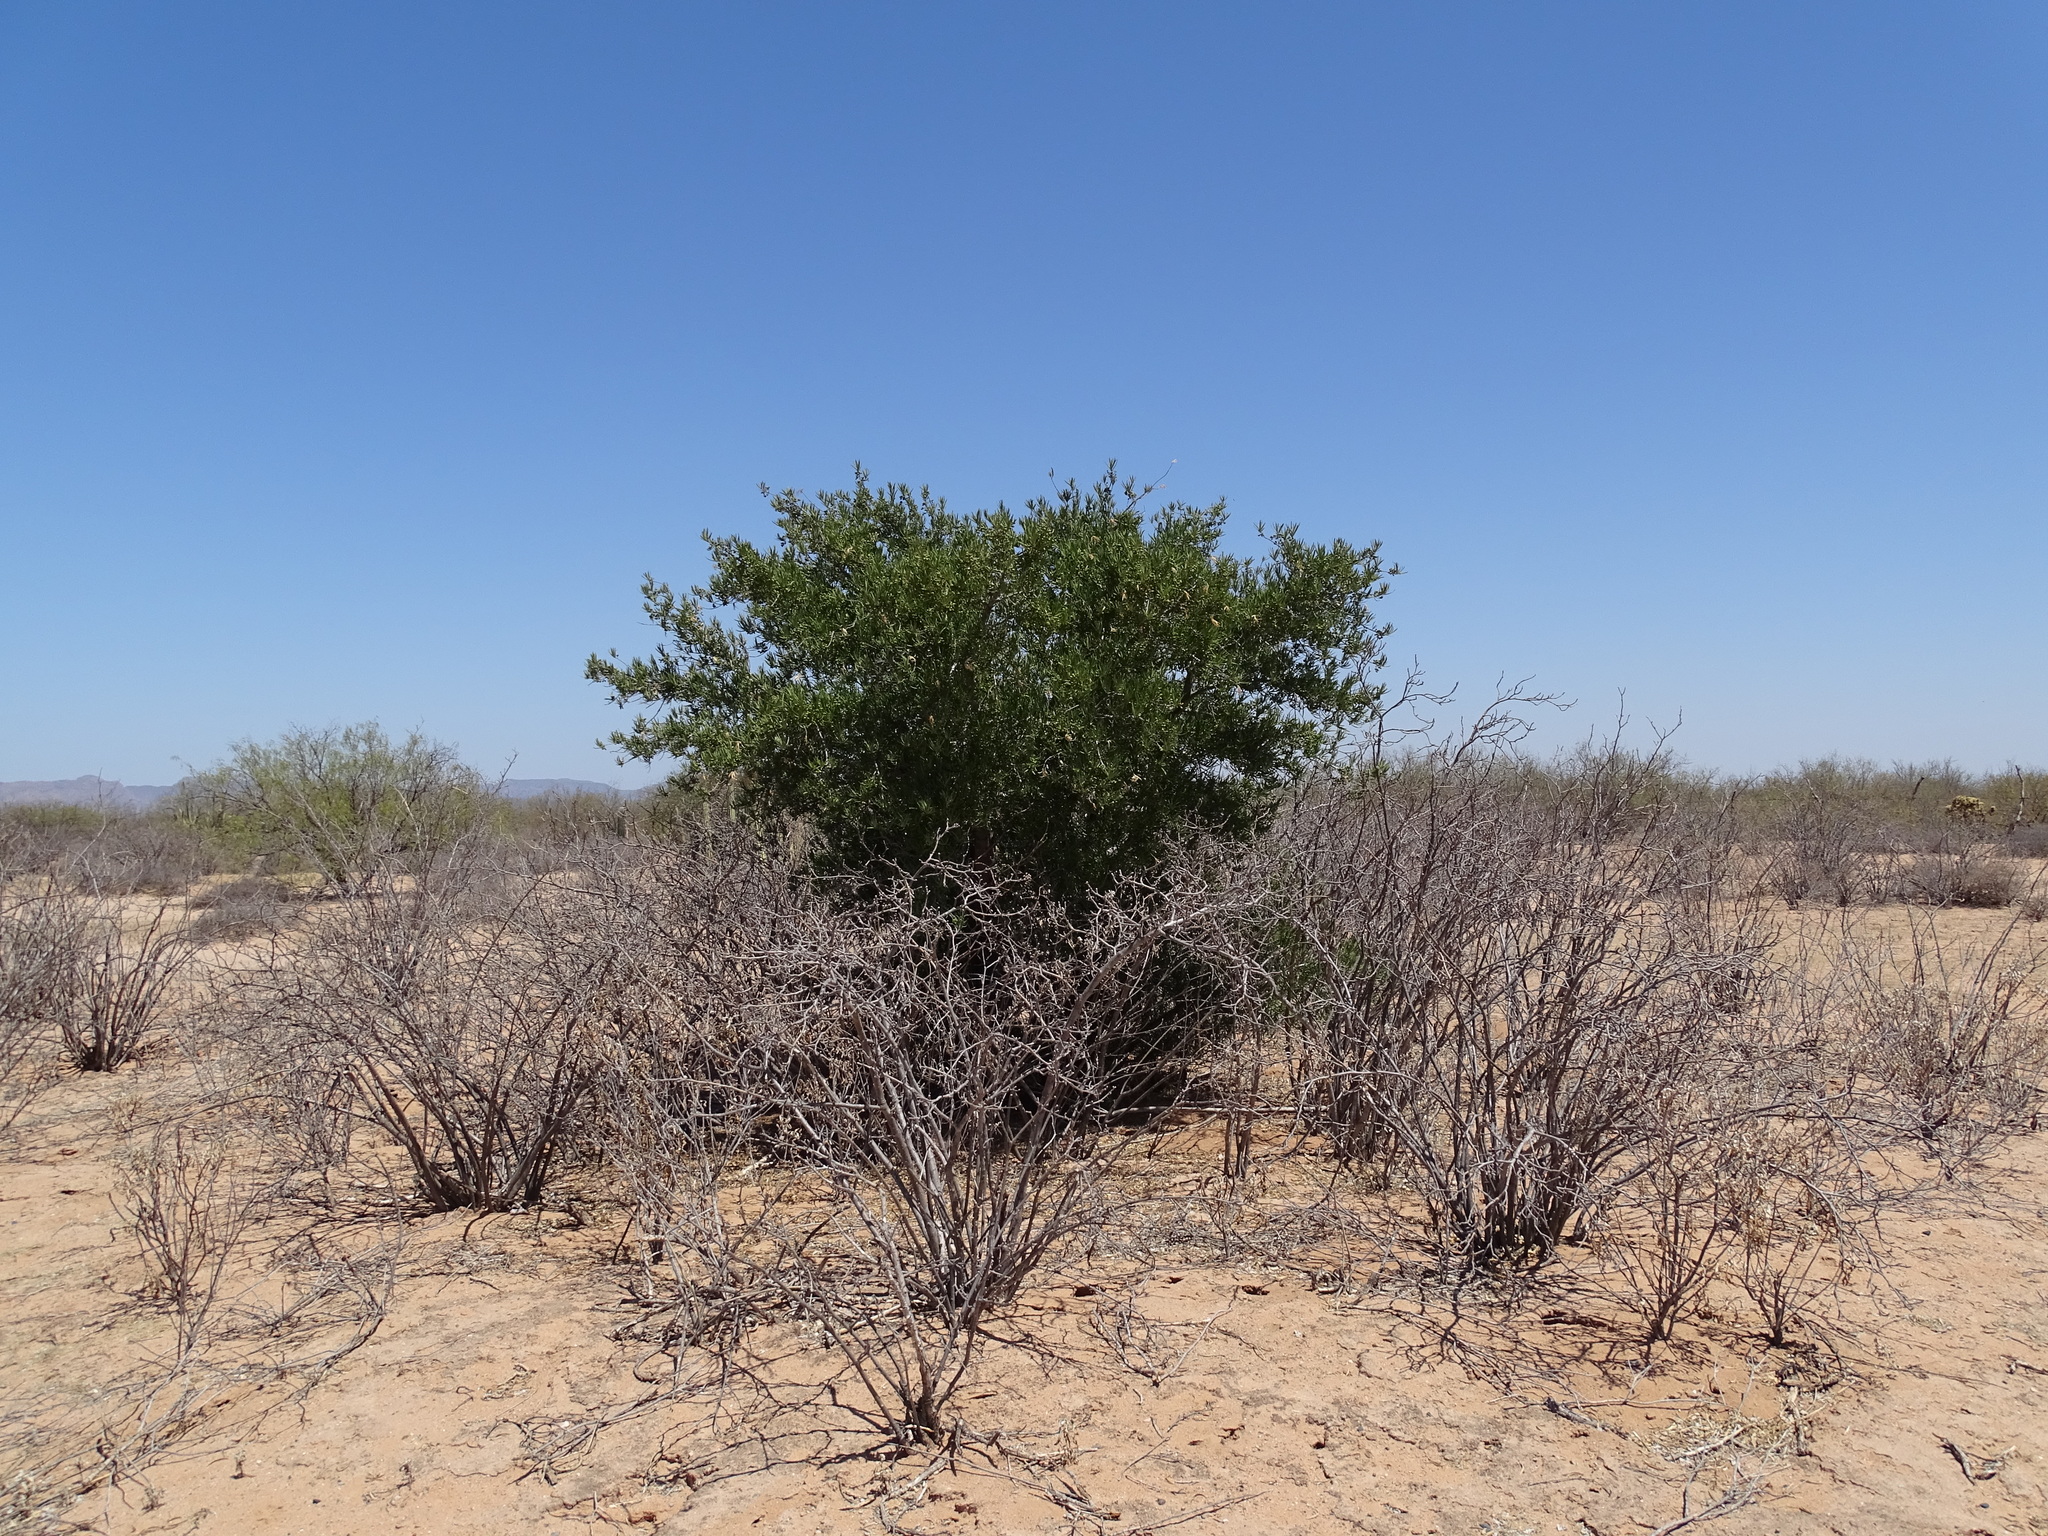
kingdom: Plantae
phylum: Tracheophyta
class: Magnoliopsida
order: Brassicales
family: Stixaceae
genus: Forchhammeria
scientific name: Forchhammeria watsonii
